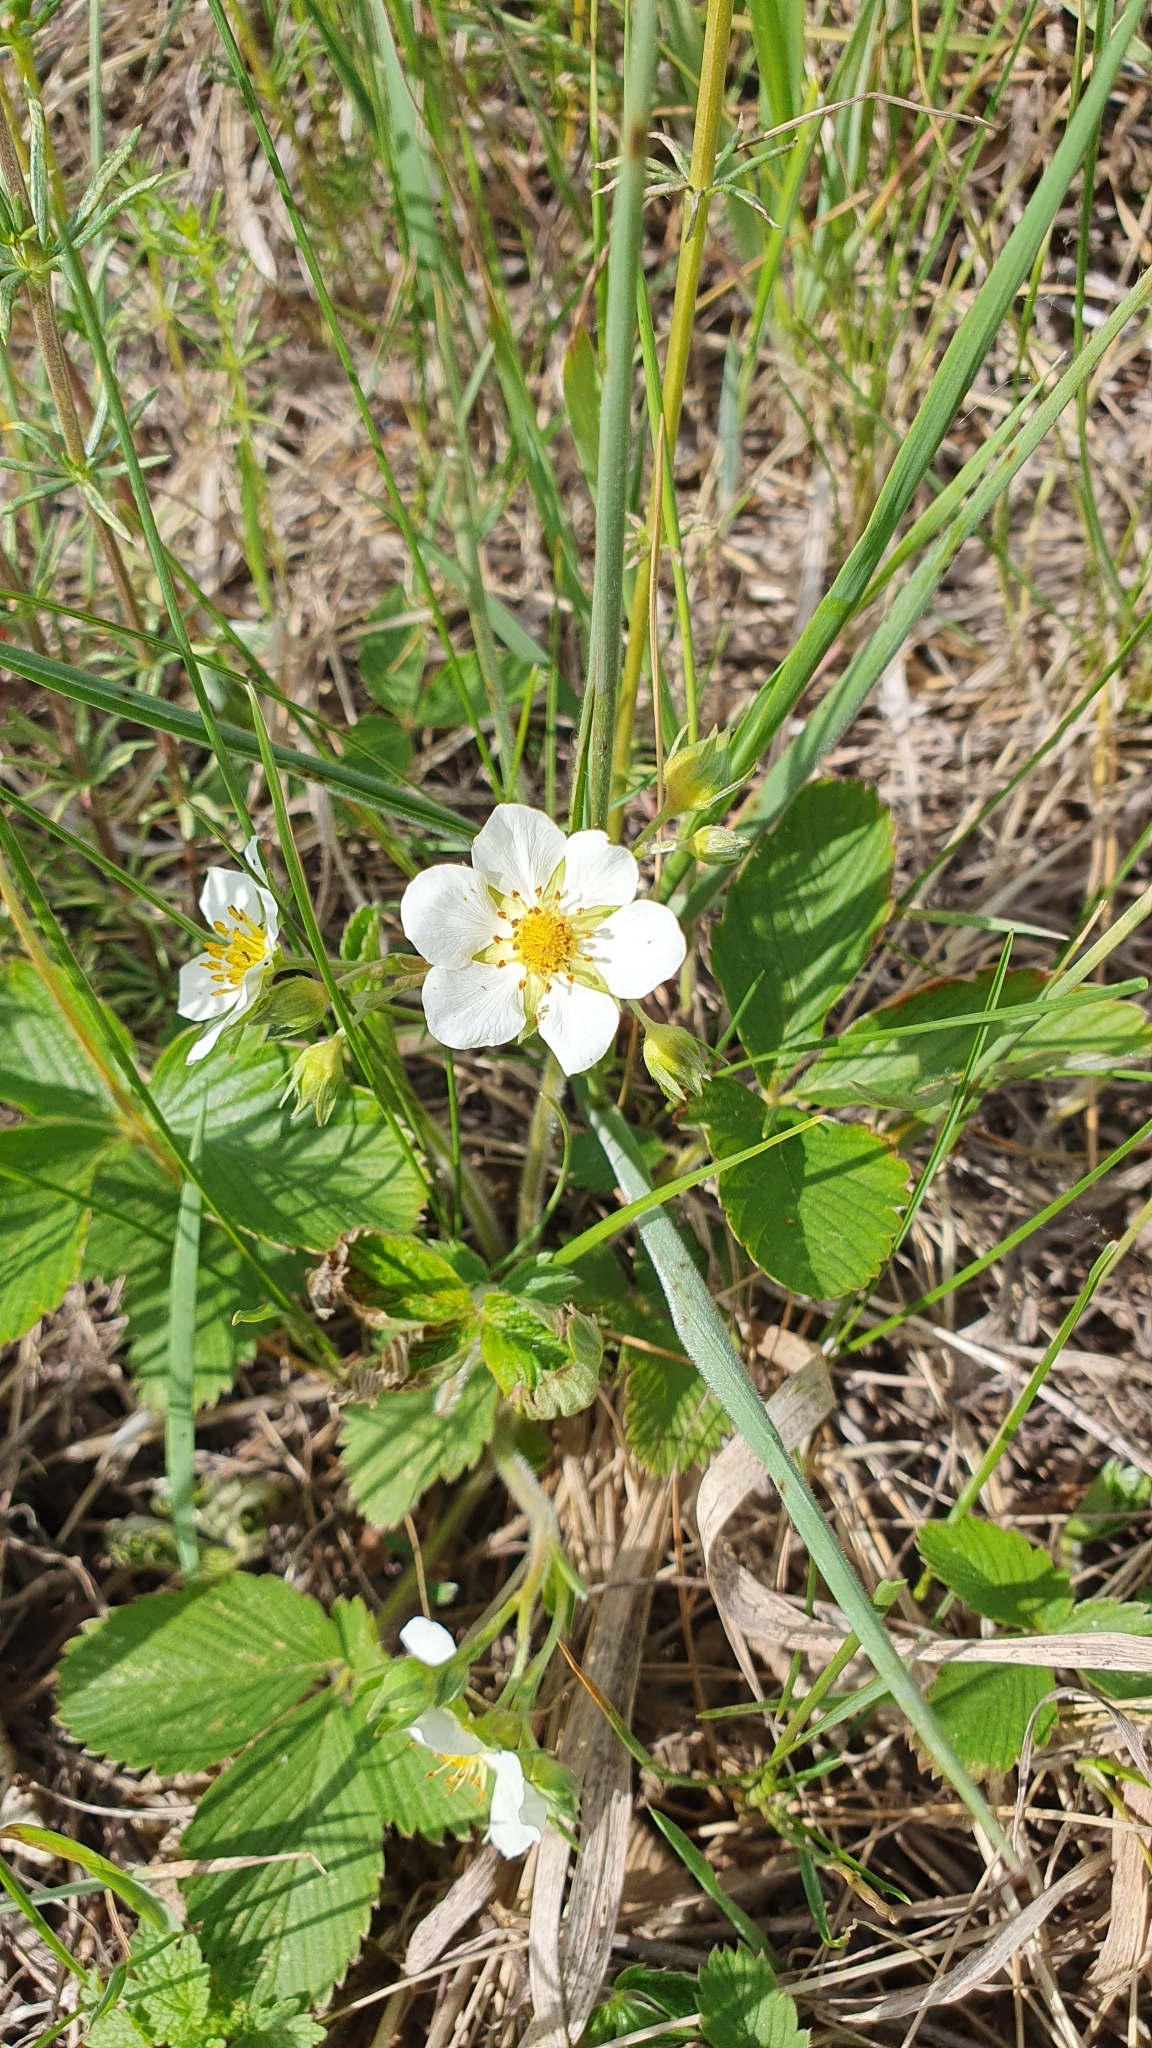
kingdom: Plantae
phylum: Tracheophyta
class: Magnoliopsida
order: Rosales
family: Rosaceae
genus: Fragaria
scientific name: Fragaria viridis
